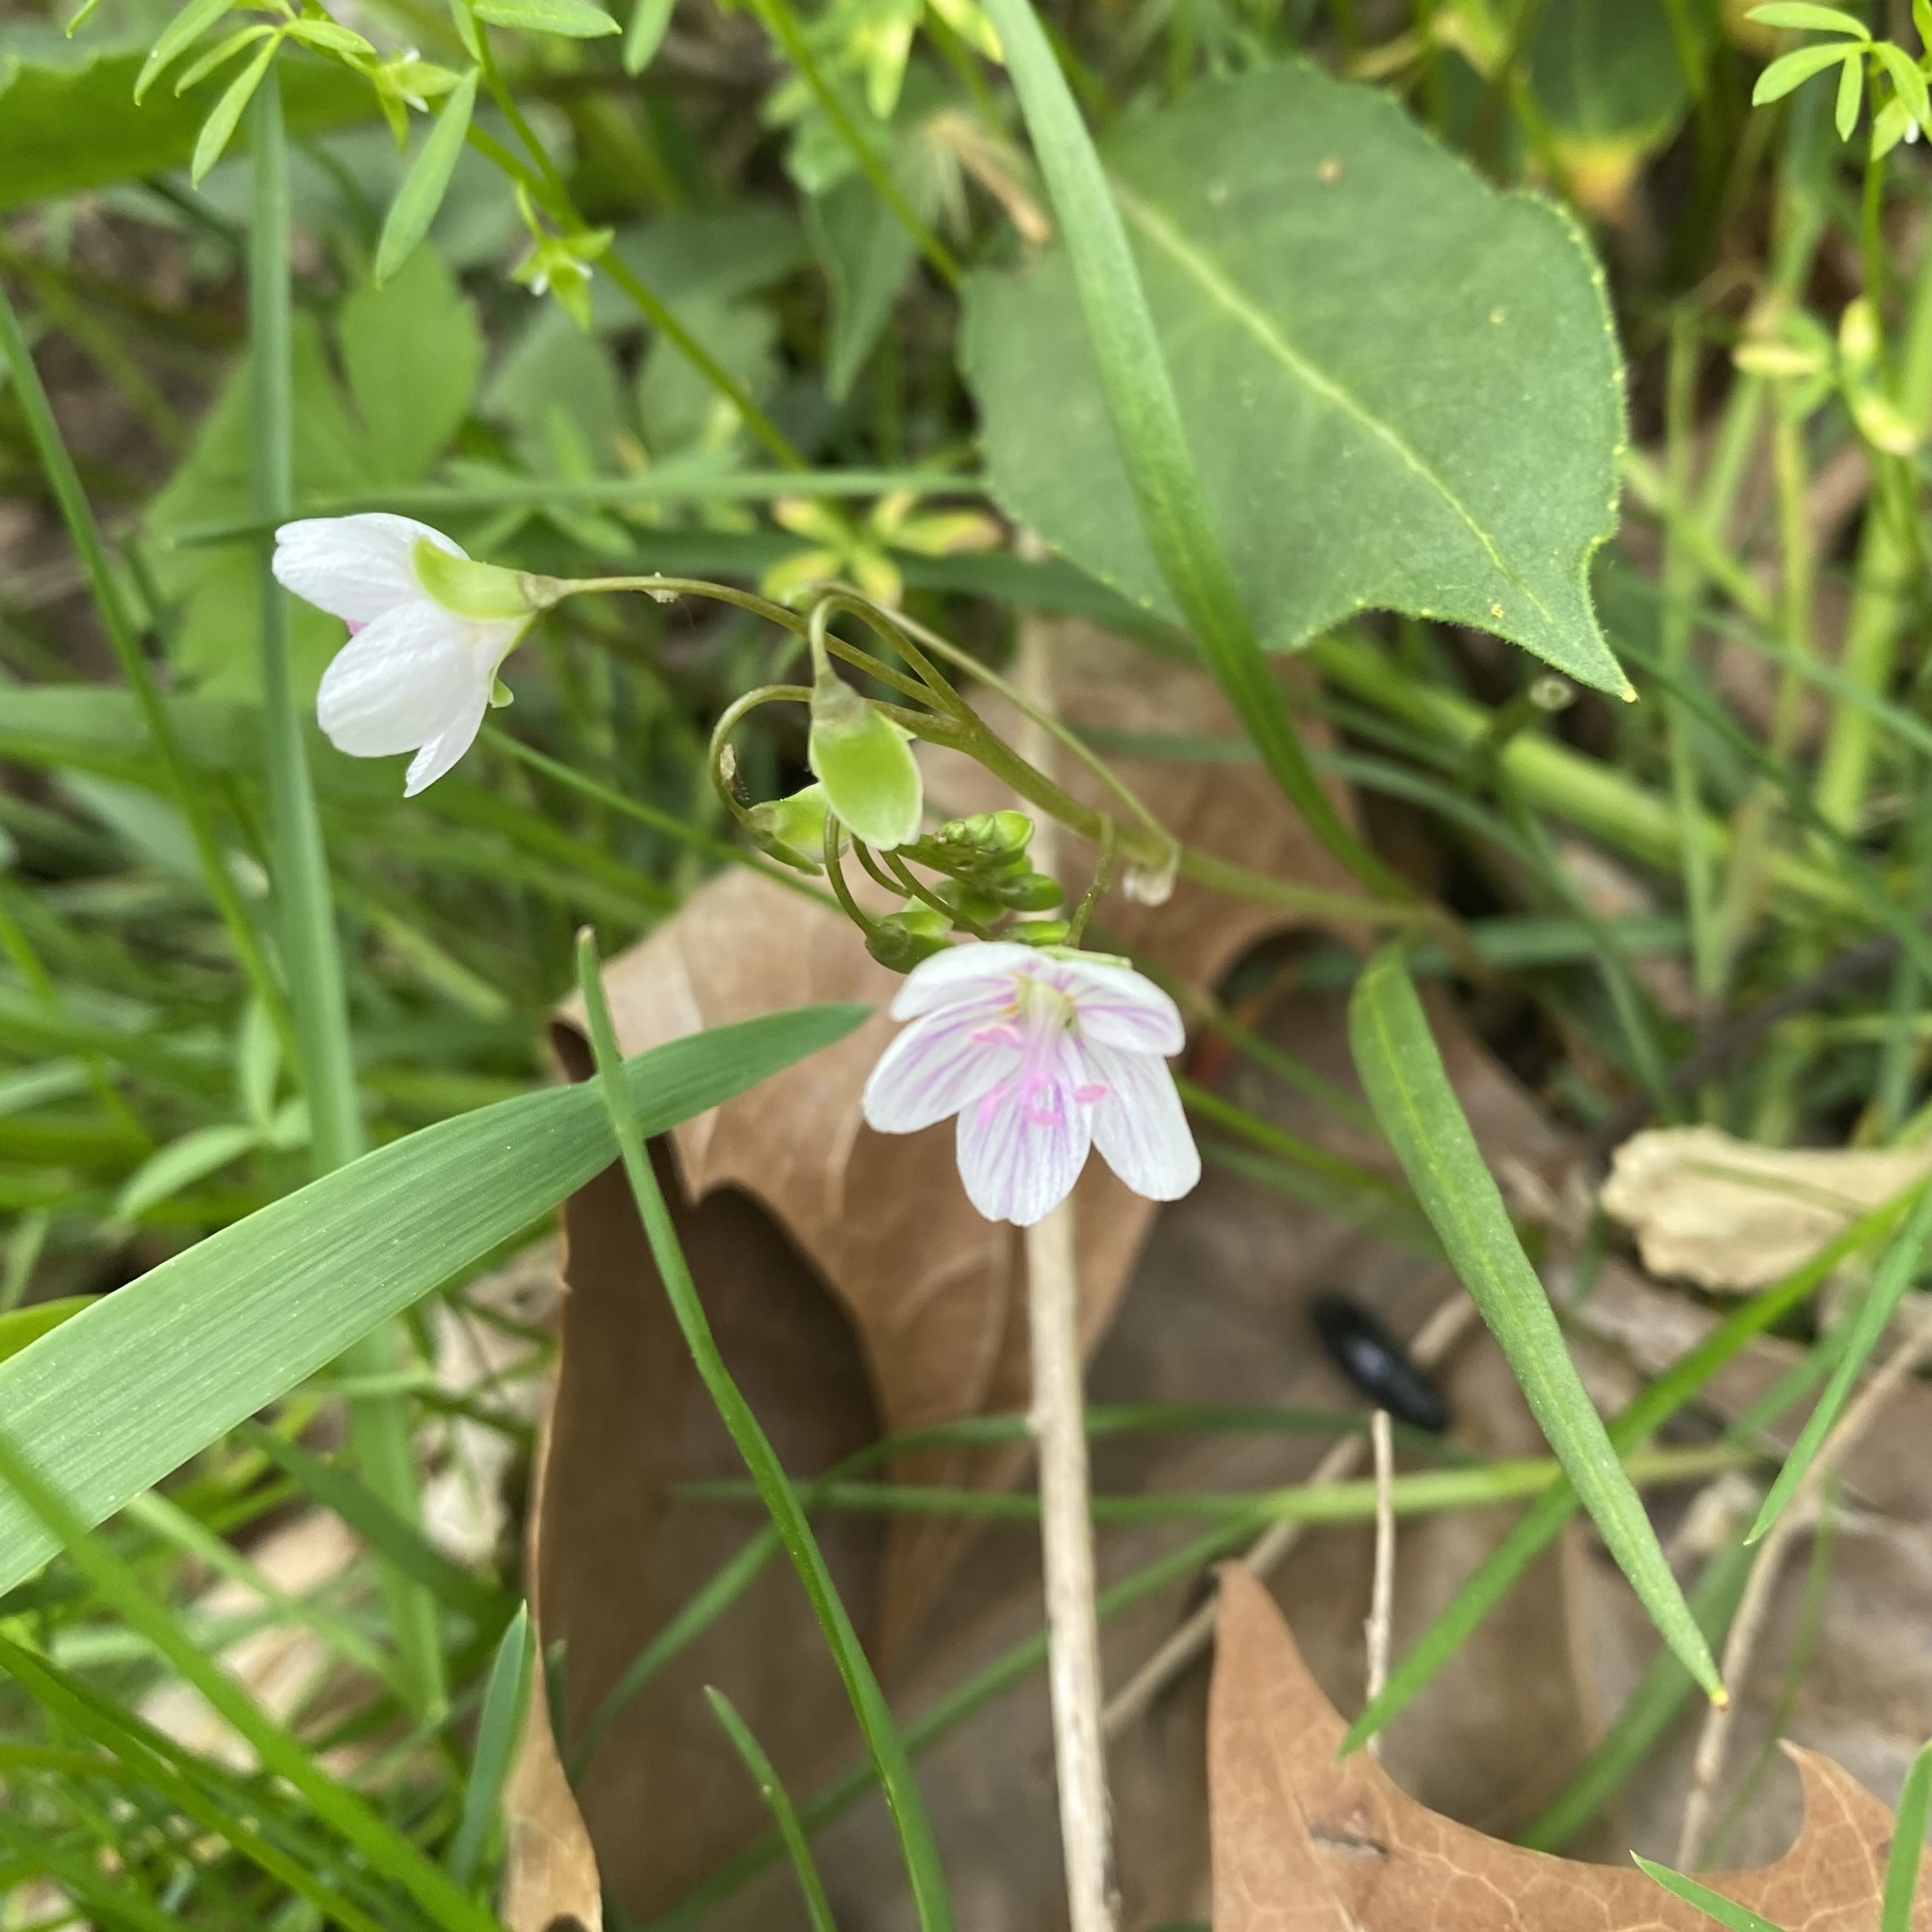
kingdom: Plantae
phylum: Tracheophyta
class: Magnoliopsida
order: Caryophyllales
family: Montiaceae
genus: Claytonia
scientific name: Claytonia virginica
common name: Virginia springbeauty
